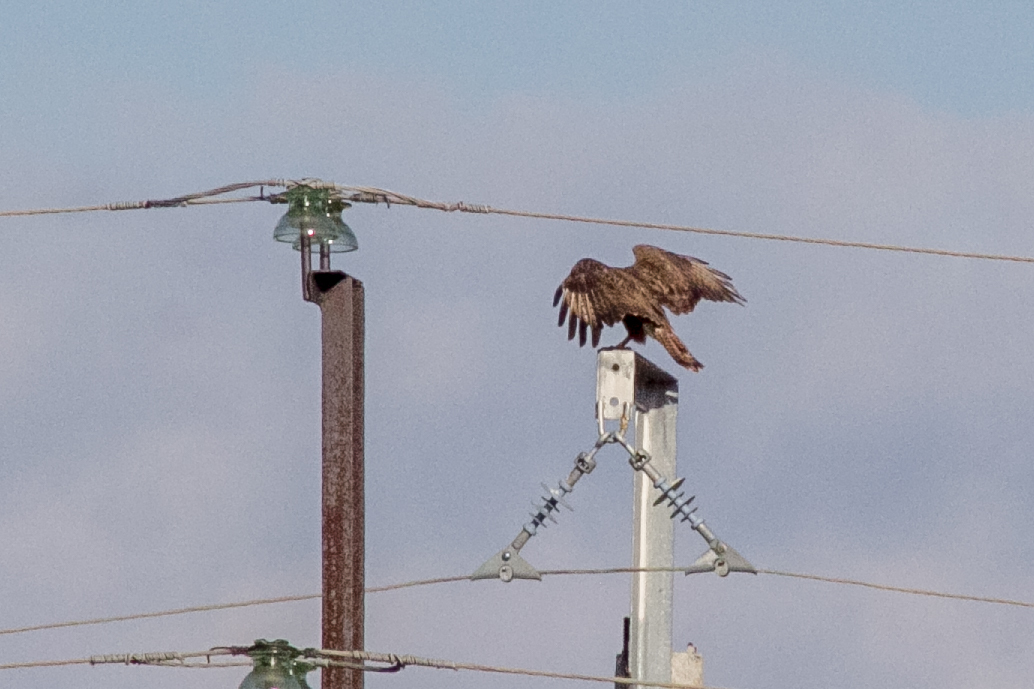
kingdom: Animalia
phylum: Chordata
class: Aves
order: Accipitriformes
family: Accipitridae
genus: Buteo
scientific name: Buteo buteo
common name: Common buzzard
